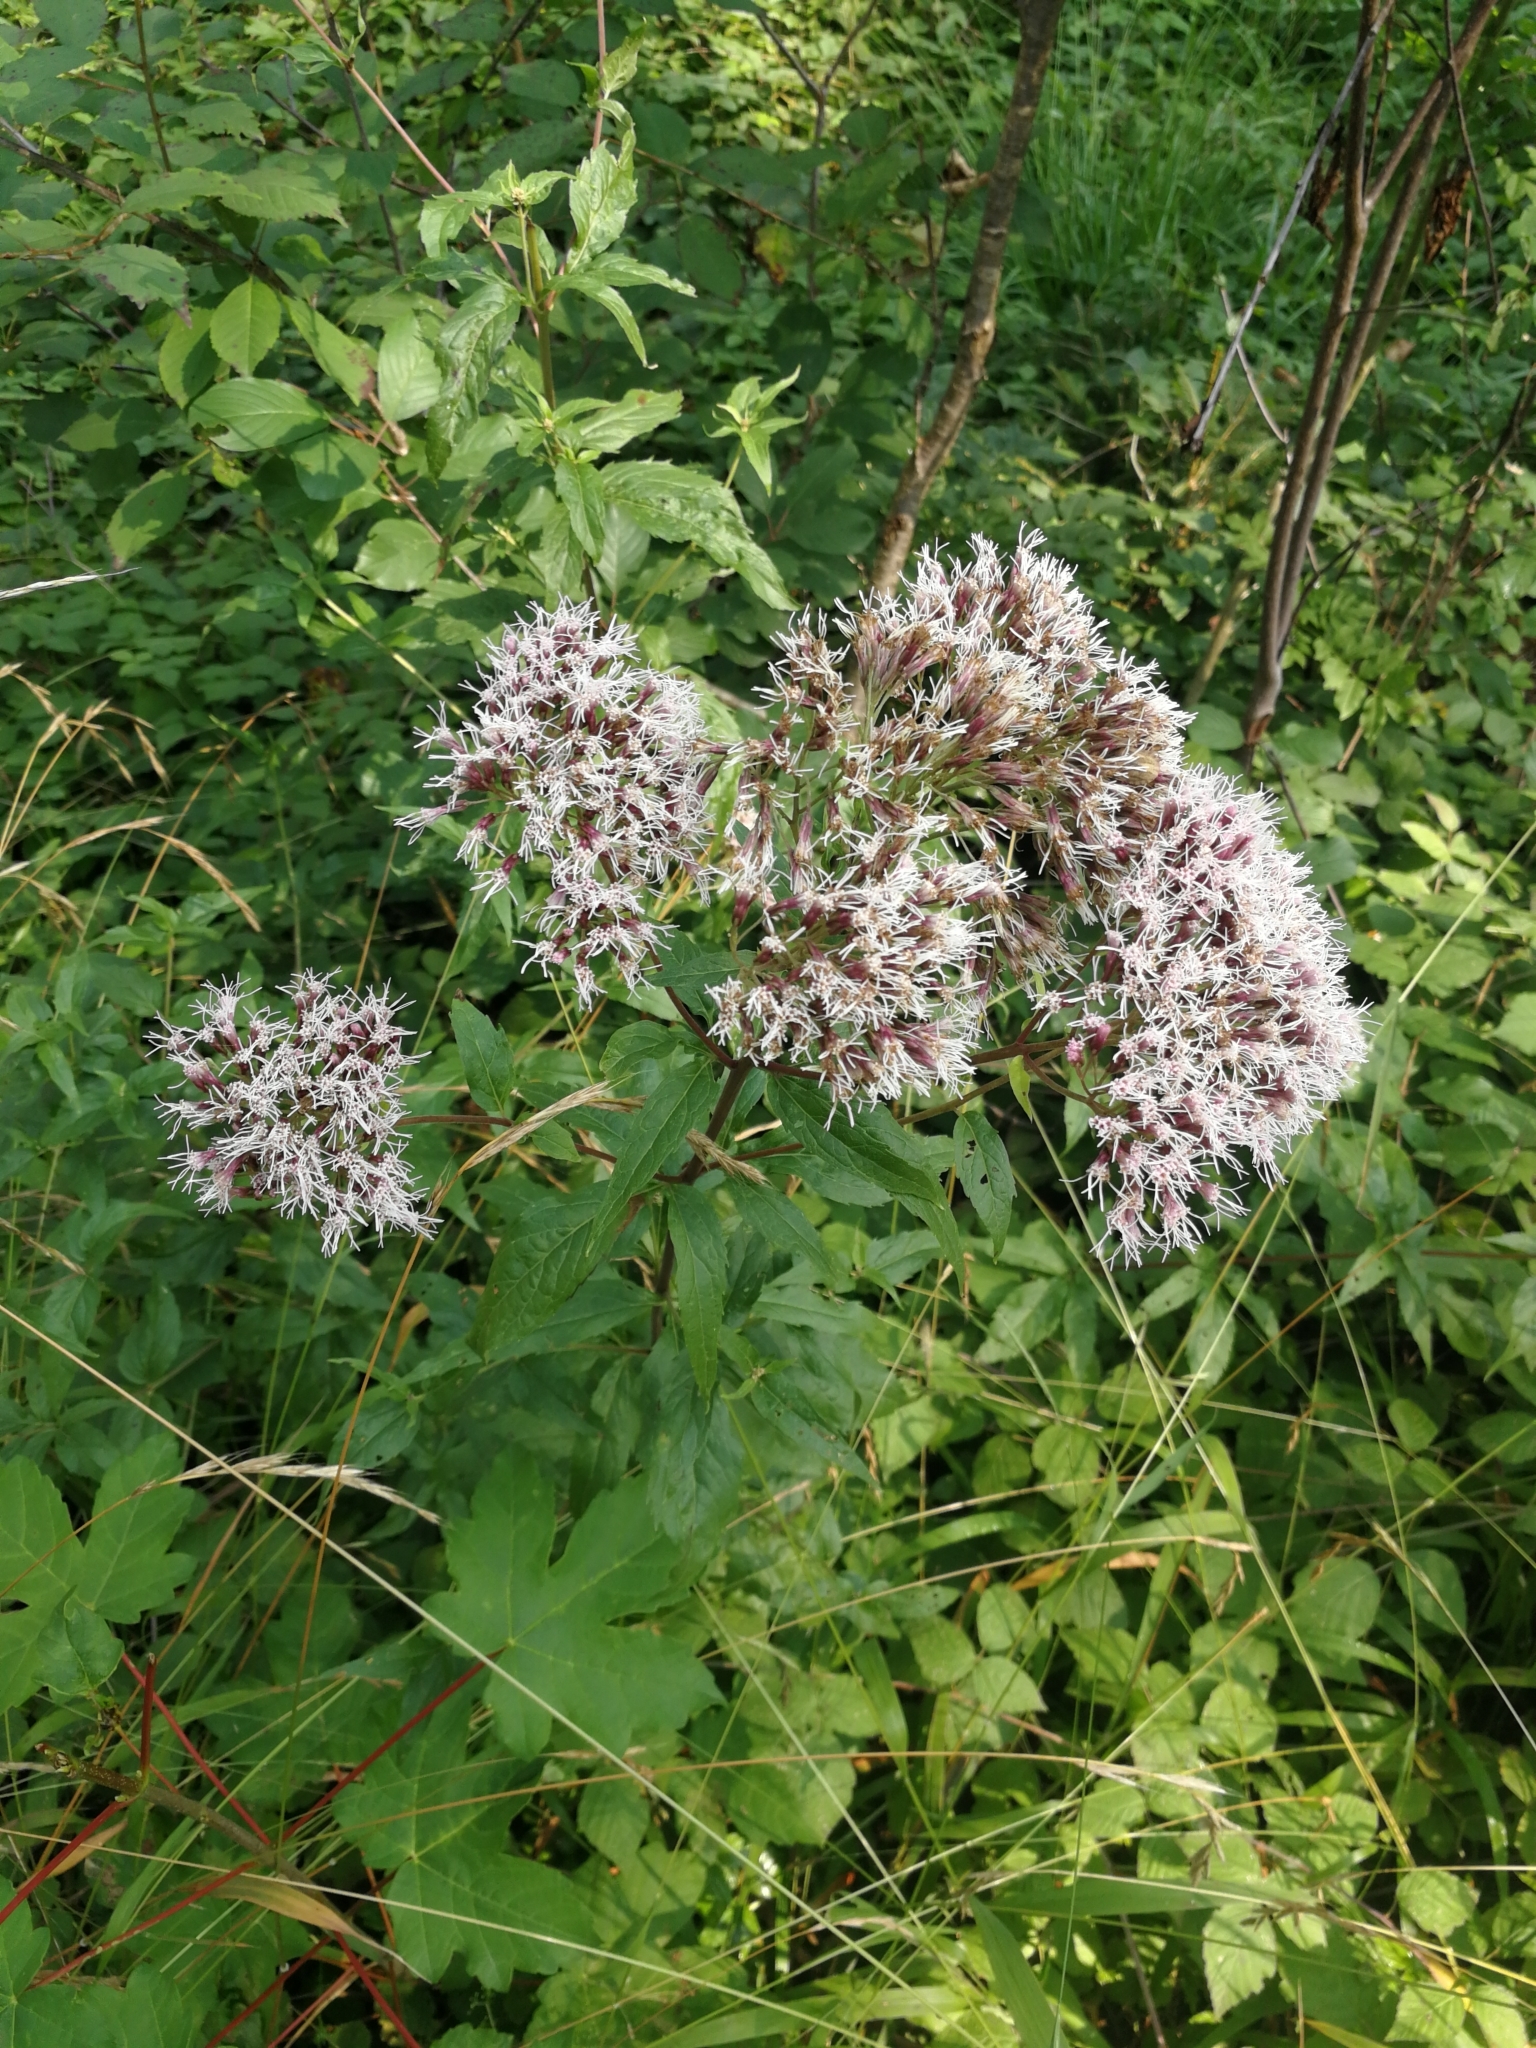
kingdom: Plantae
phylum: Tracheophyta
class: Magnoliopsida
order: Asterales
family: Asteraceae
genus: Eupatorium
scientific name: Eupatorium cannabinum
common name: Hemp-agrimony
